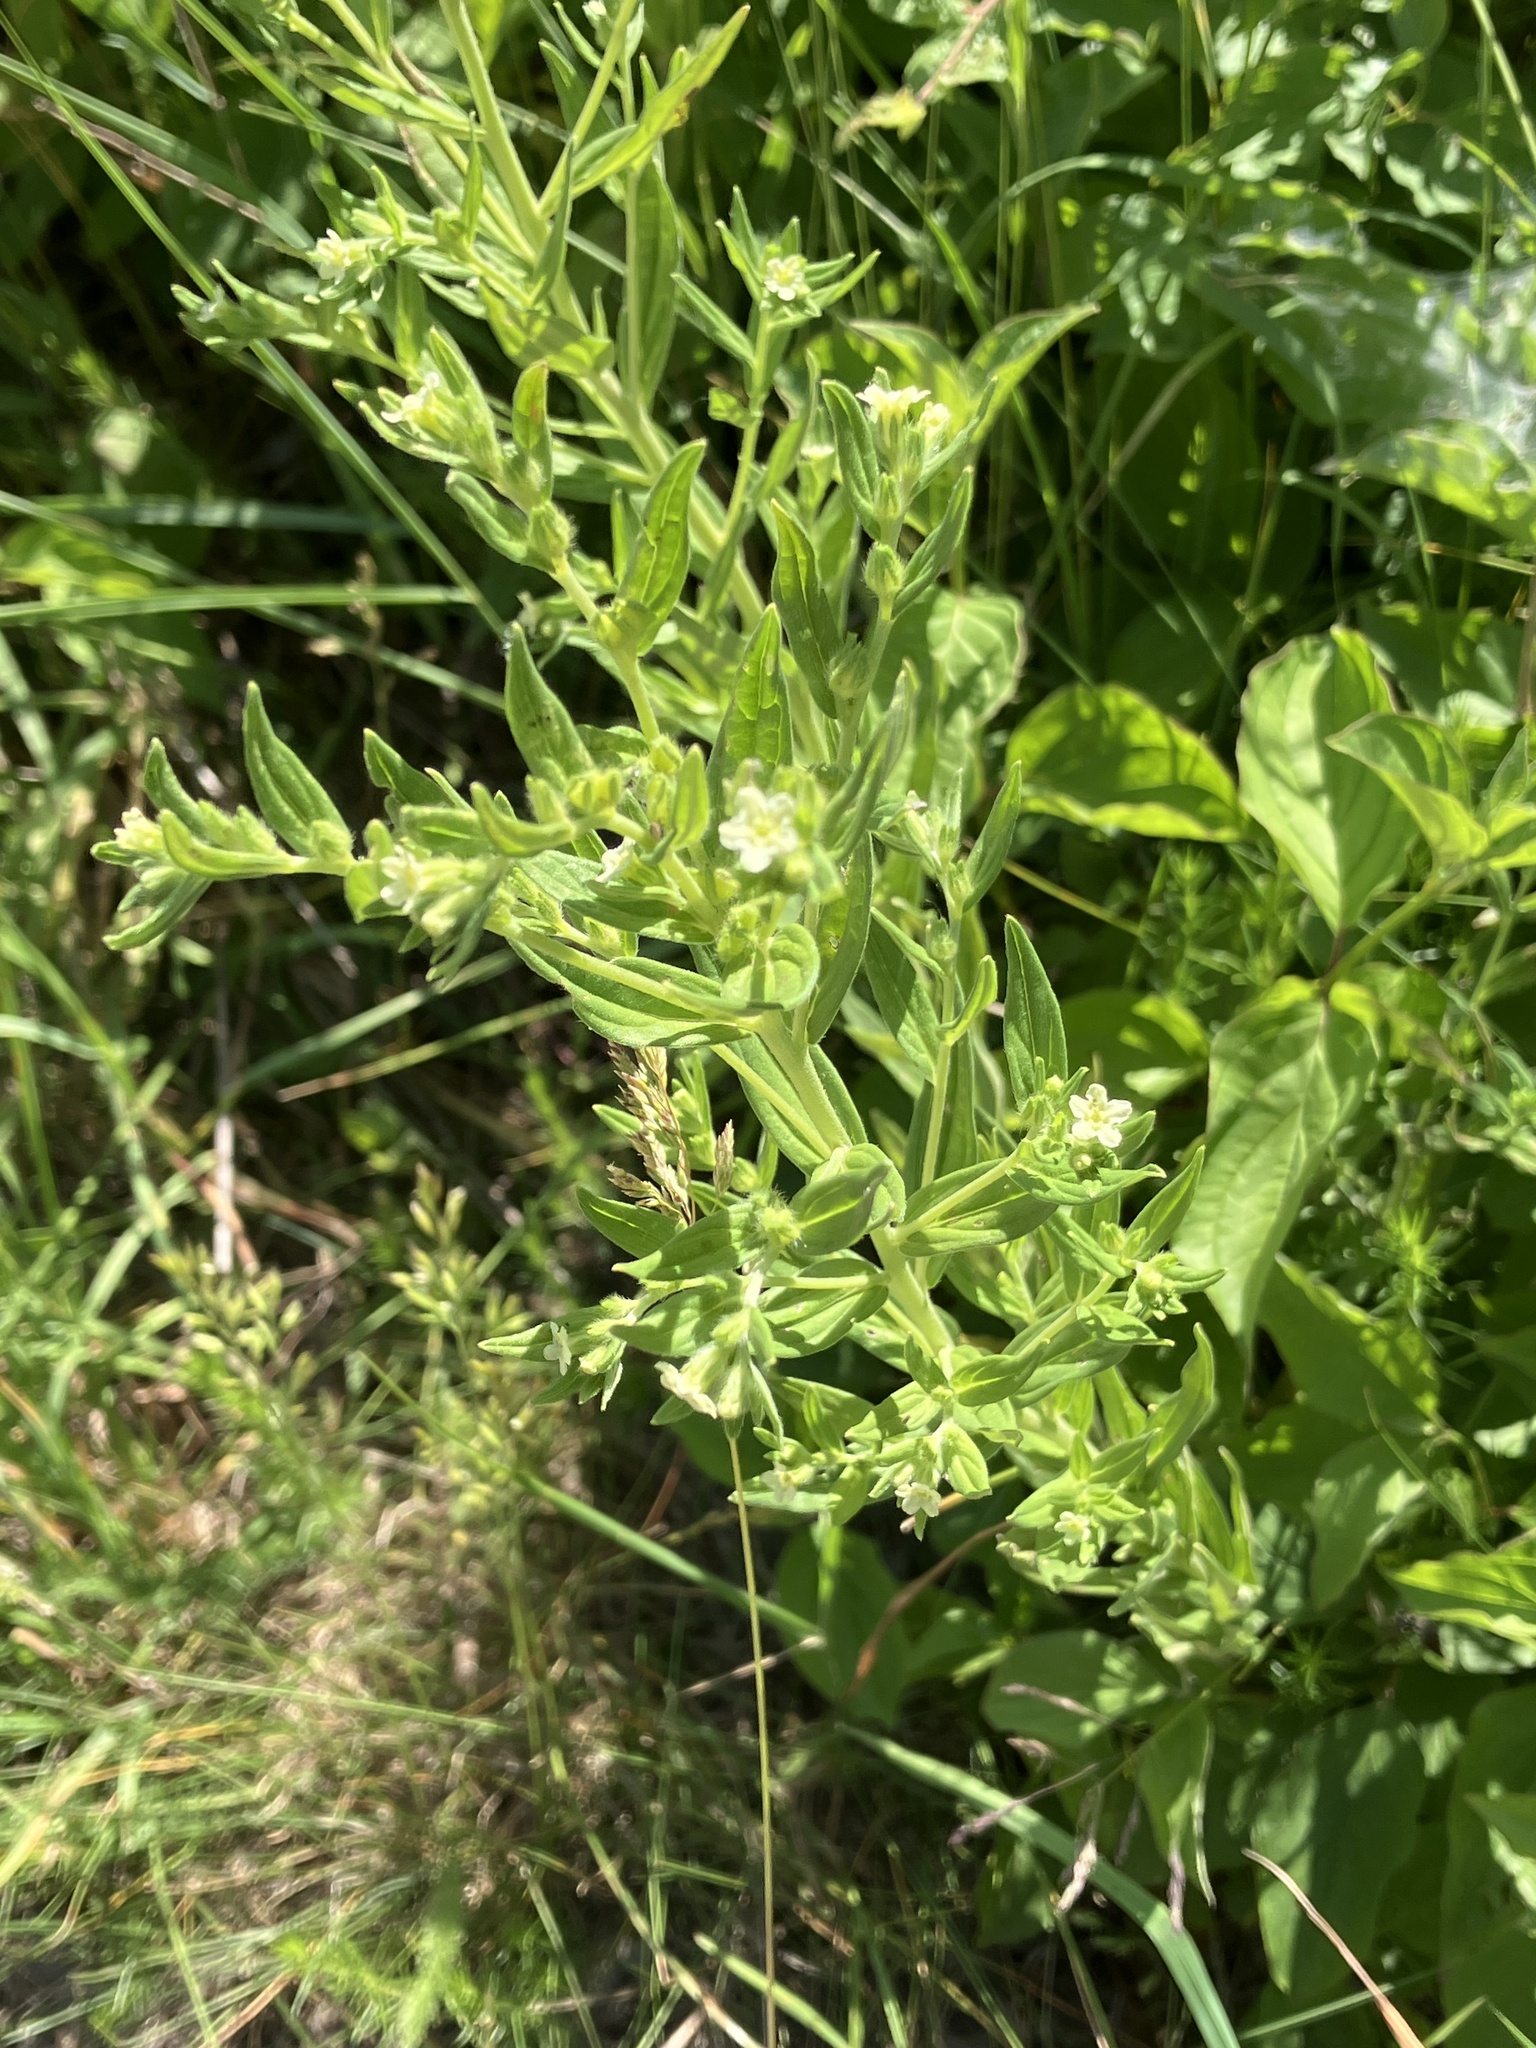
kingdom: Plantae
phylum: Tracheophyta
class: Magnoliopsida
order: Boraginales
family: Boraginaceae
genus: Lithospermum
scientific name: Lithospermum officinale
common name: Common gromwell
